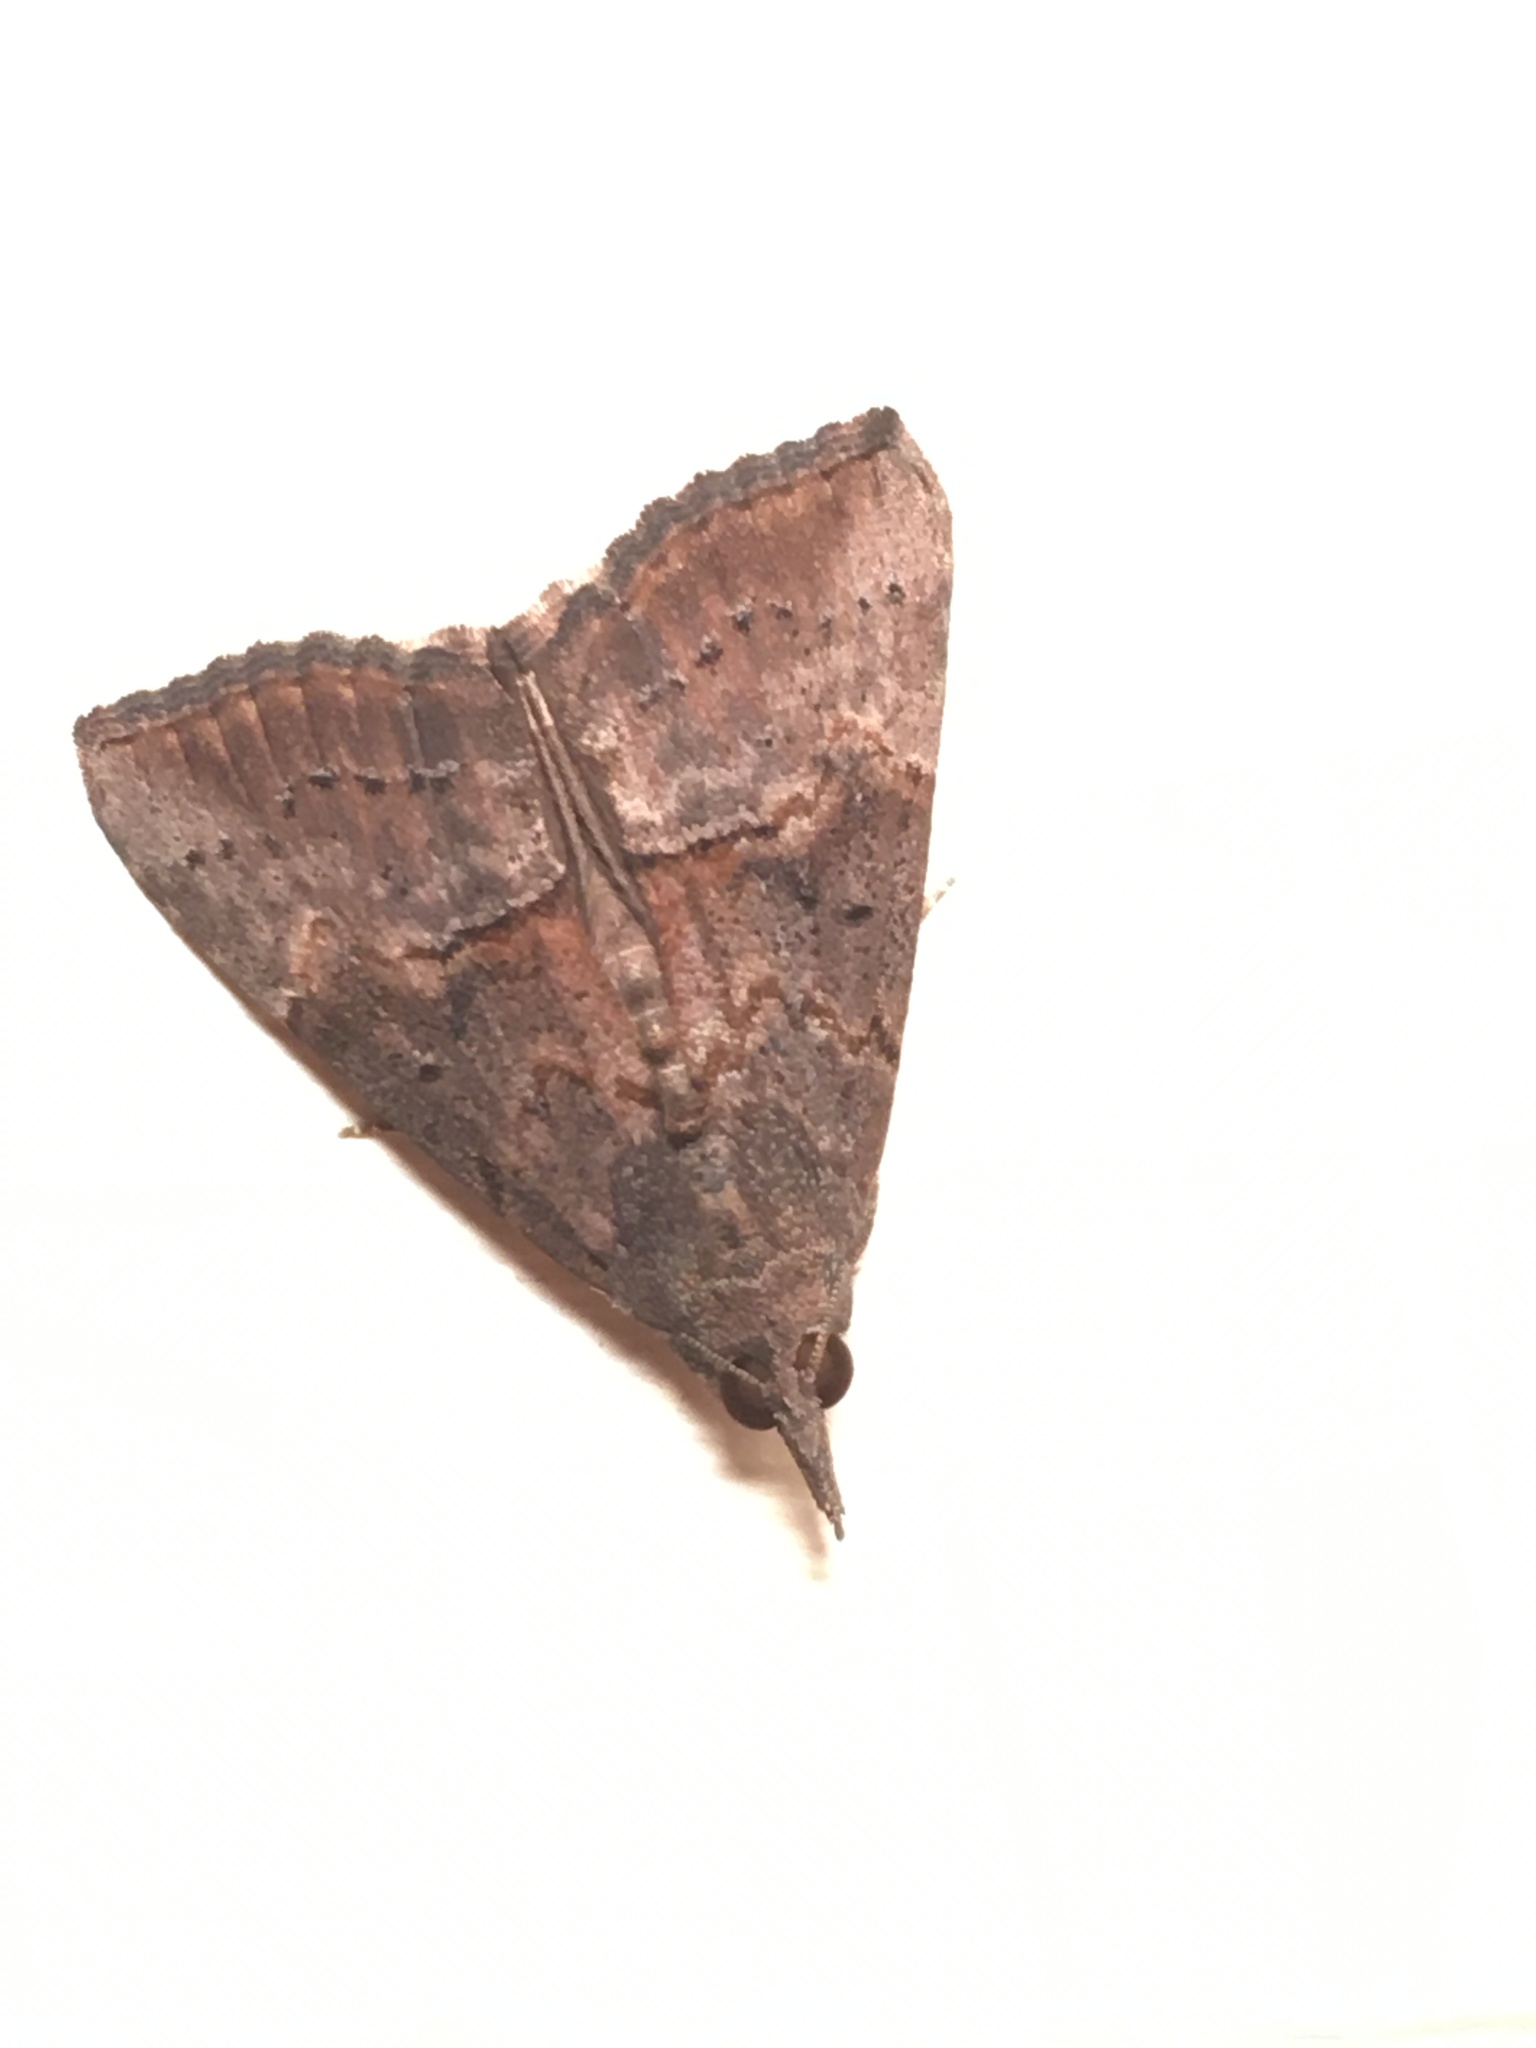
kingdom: Animalia
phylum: Arthropoda
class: Insecta
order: Lepidoptera
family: Erebidae
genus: Hypena
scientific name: Hypena scabra
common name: Green cloverworm
